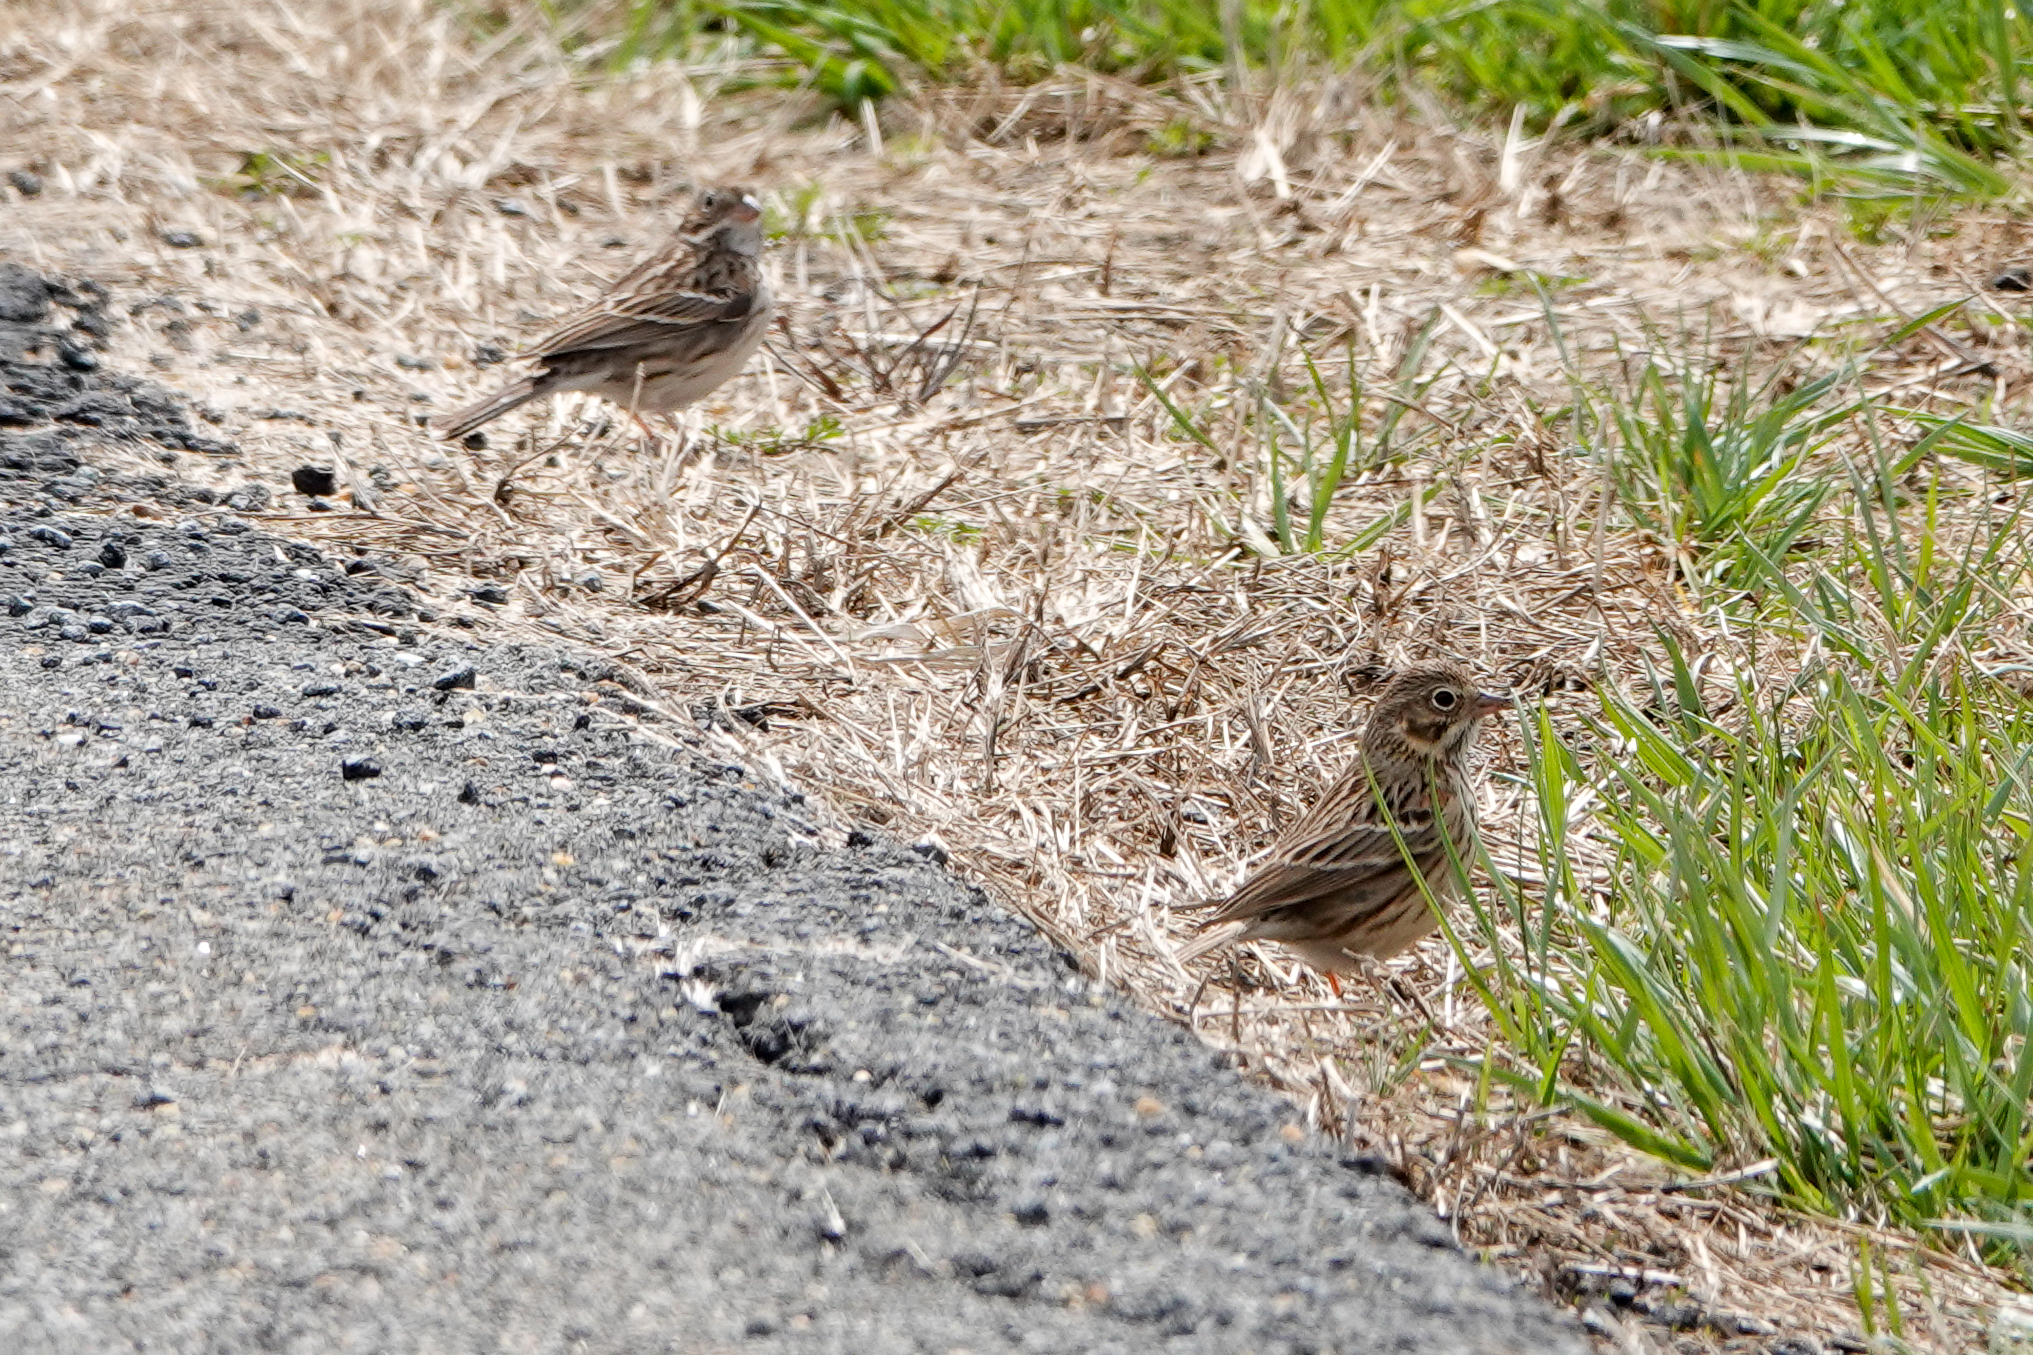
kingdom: Animalia
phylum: Chordata
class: Aves
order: Passeriformes
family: Passerellidae
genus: Pooecetes
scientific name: Pooecetes gramineus
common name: Vesper sparrow
